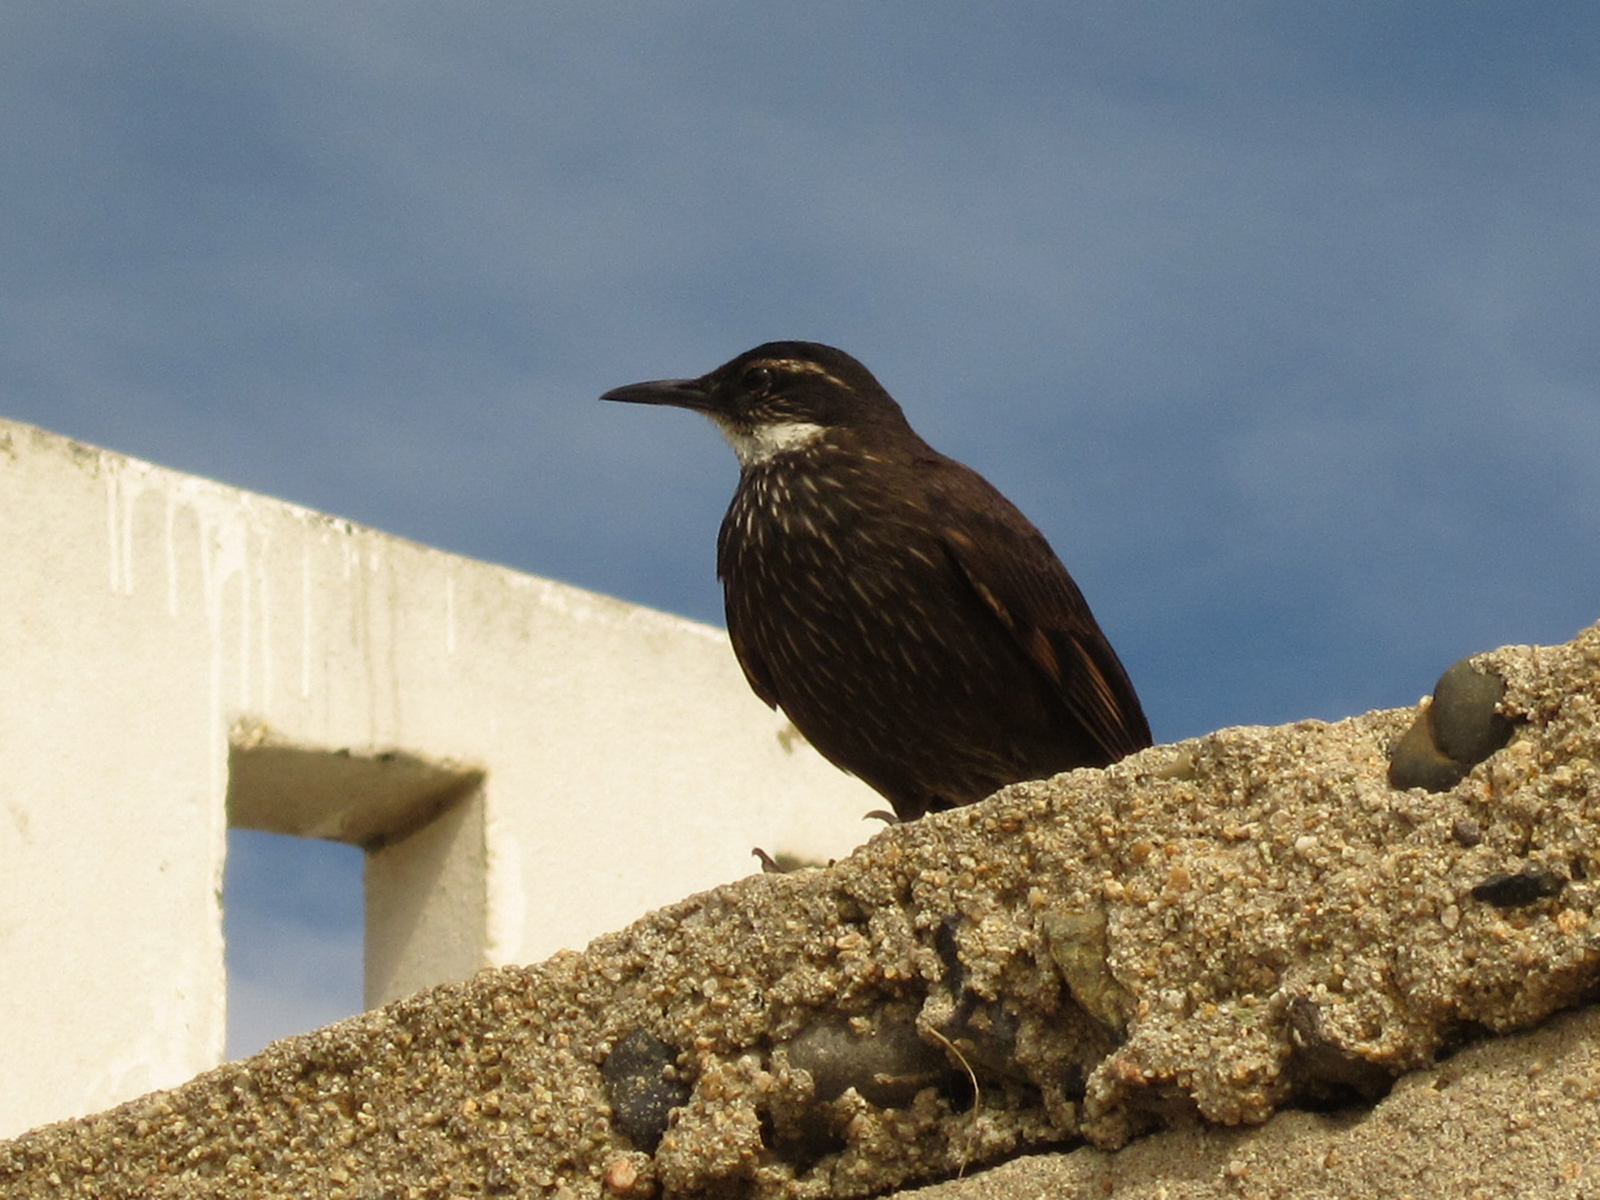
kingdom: Animalia
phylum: Chordata
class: Aves
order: Passeriformes
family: Furnariidae
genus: Cinclodes
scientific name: Cinclodes nigrofumosus
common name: Chilean seaside cinclodes
